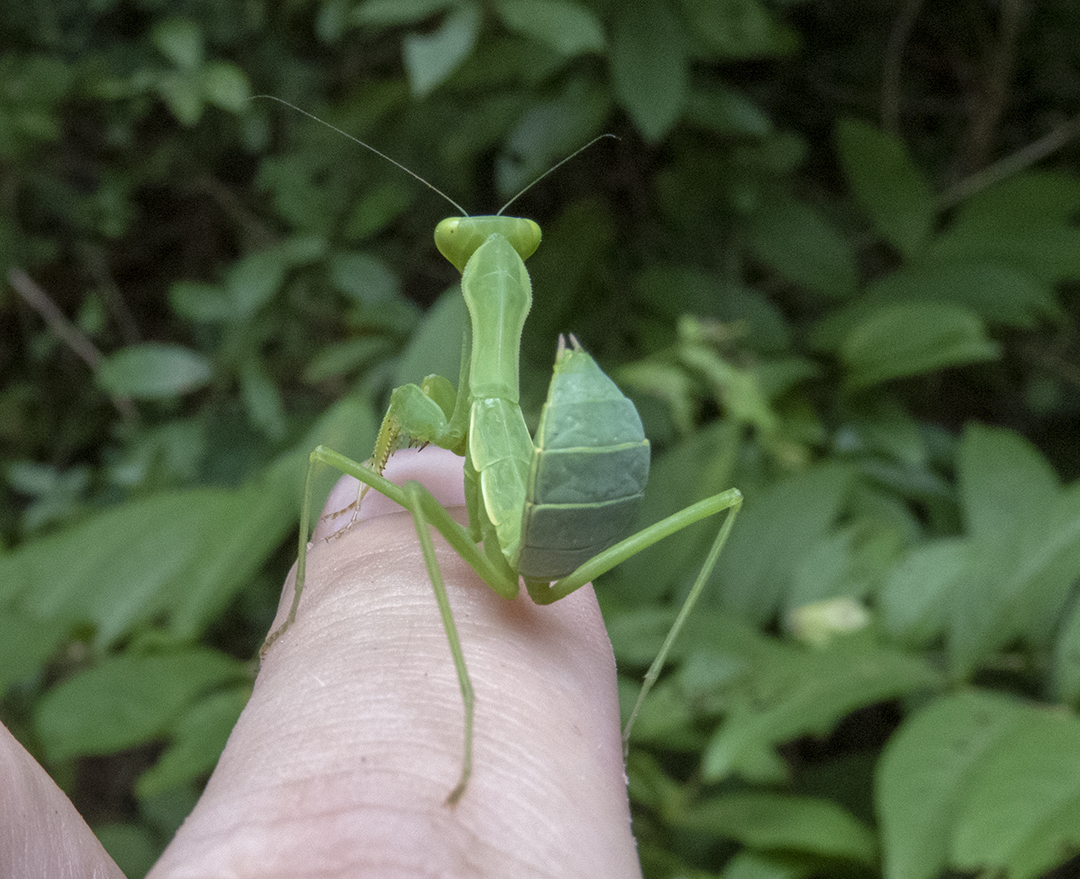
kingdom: Animalia
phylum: Arthropoda
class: Insecta
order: Mantodea
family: Mantidae
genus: Hierodula
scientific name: Hierodula pistillinota
